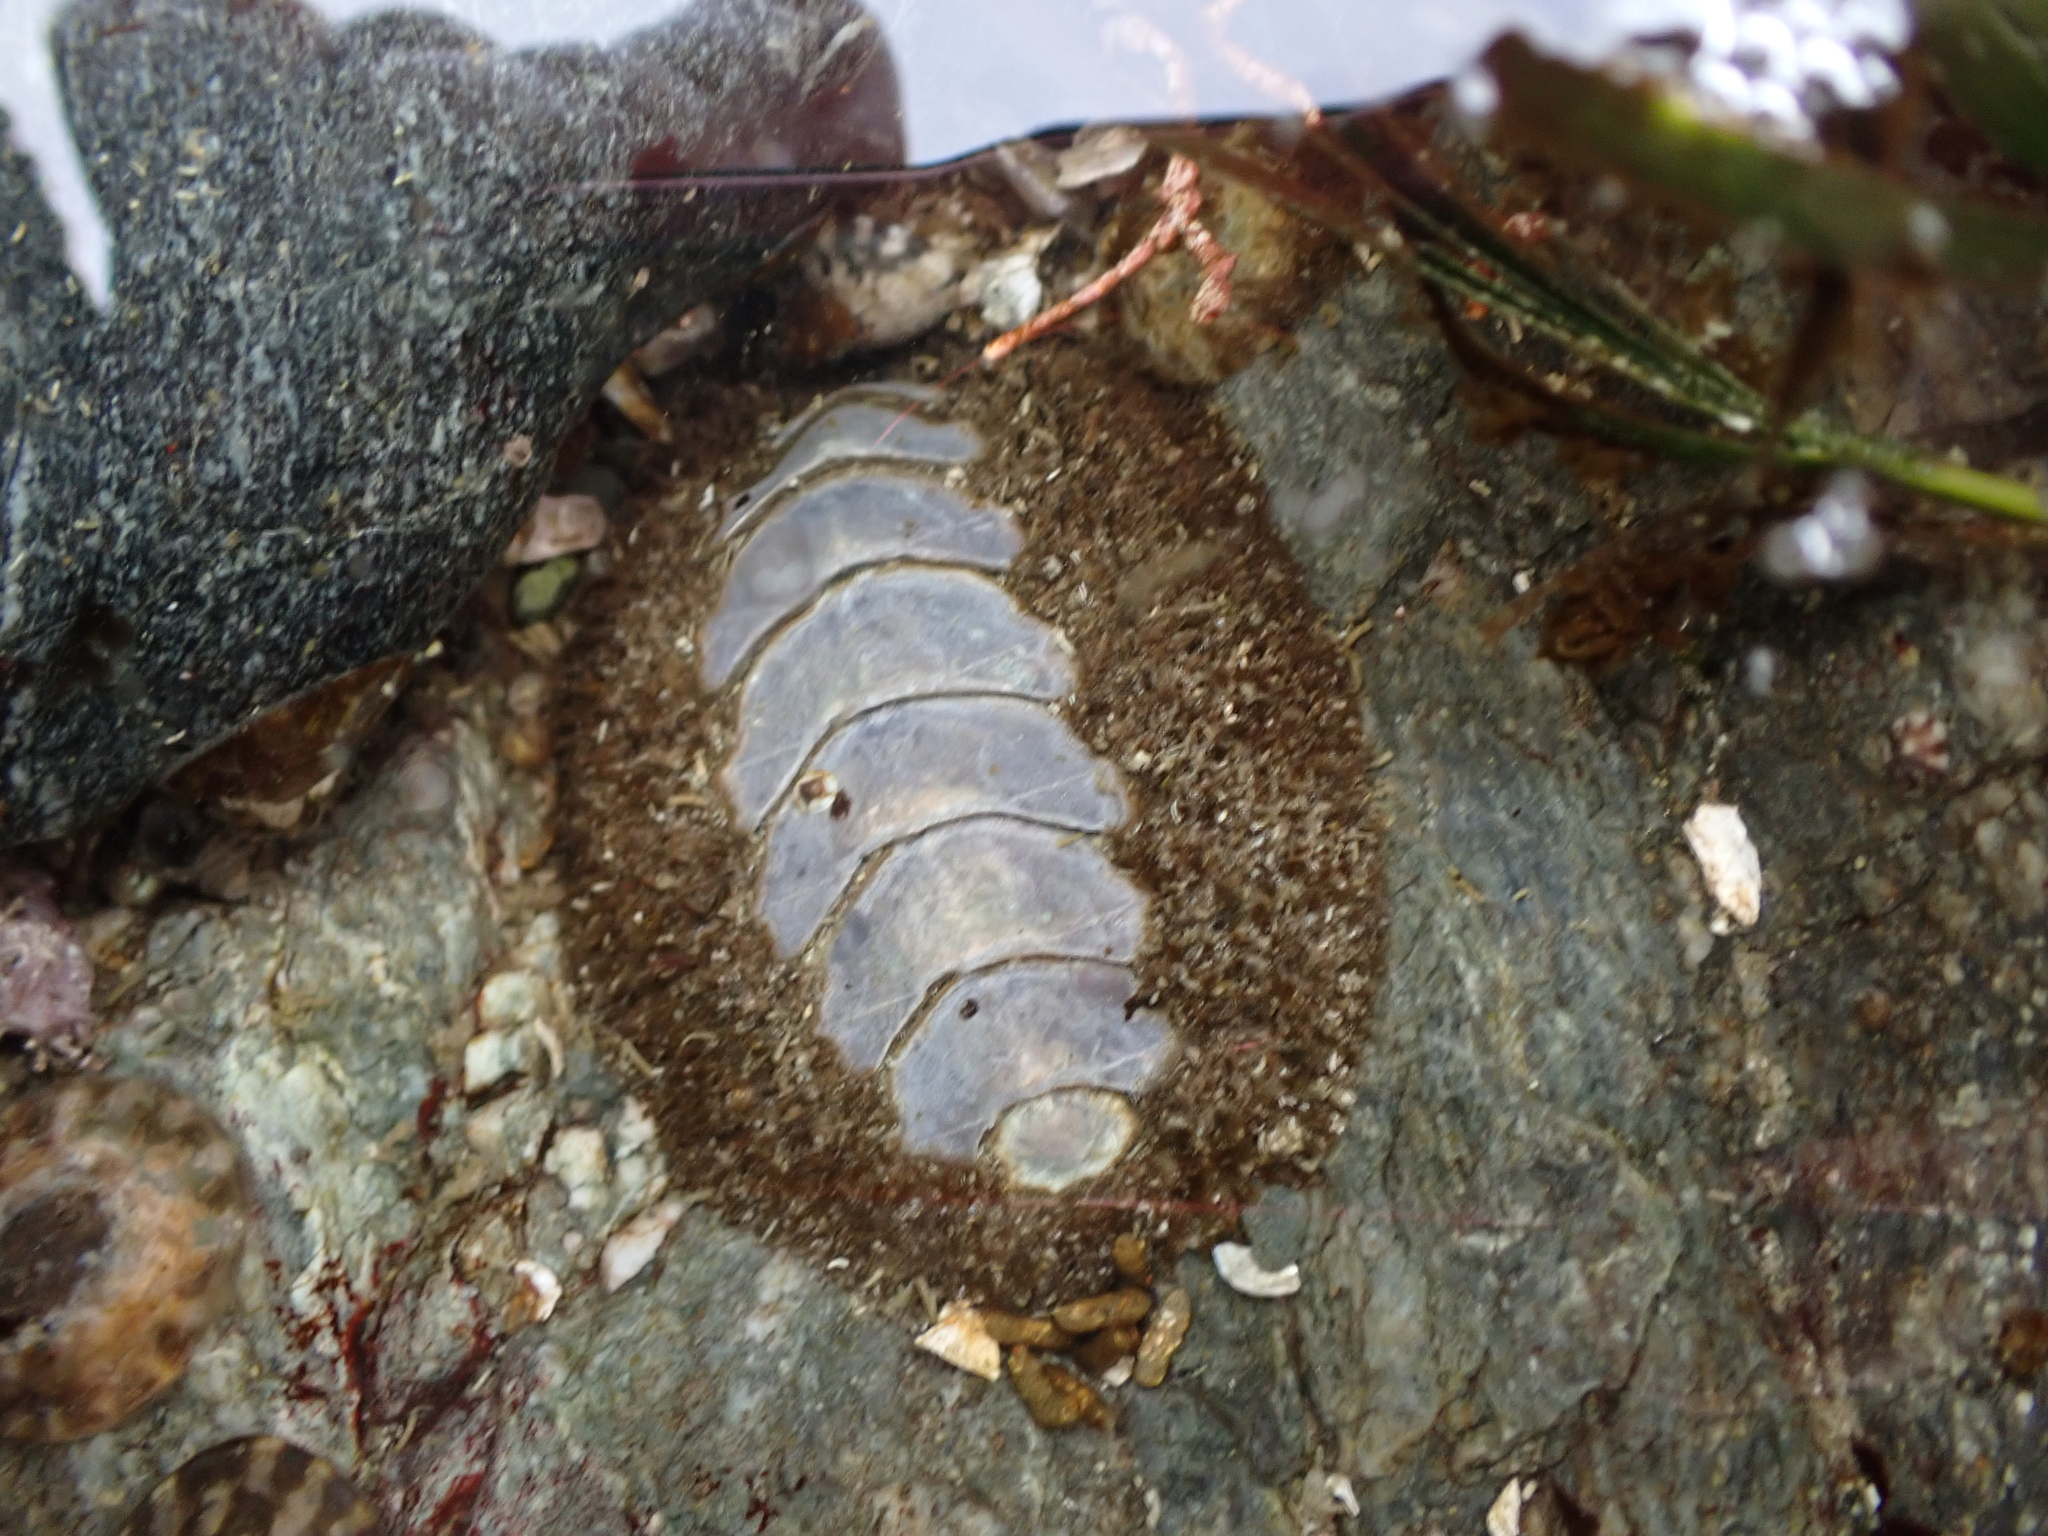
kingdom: Animalia
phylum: Mollusca
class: Polyplacophora
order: Chitonida
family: Mopaliidae
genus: Mopalia
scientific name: Mopalia muscosa
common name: Mossy chiton
